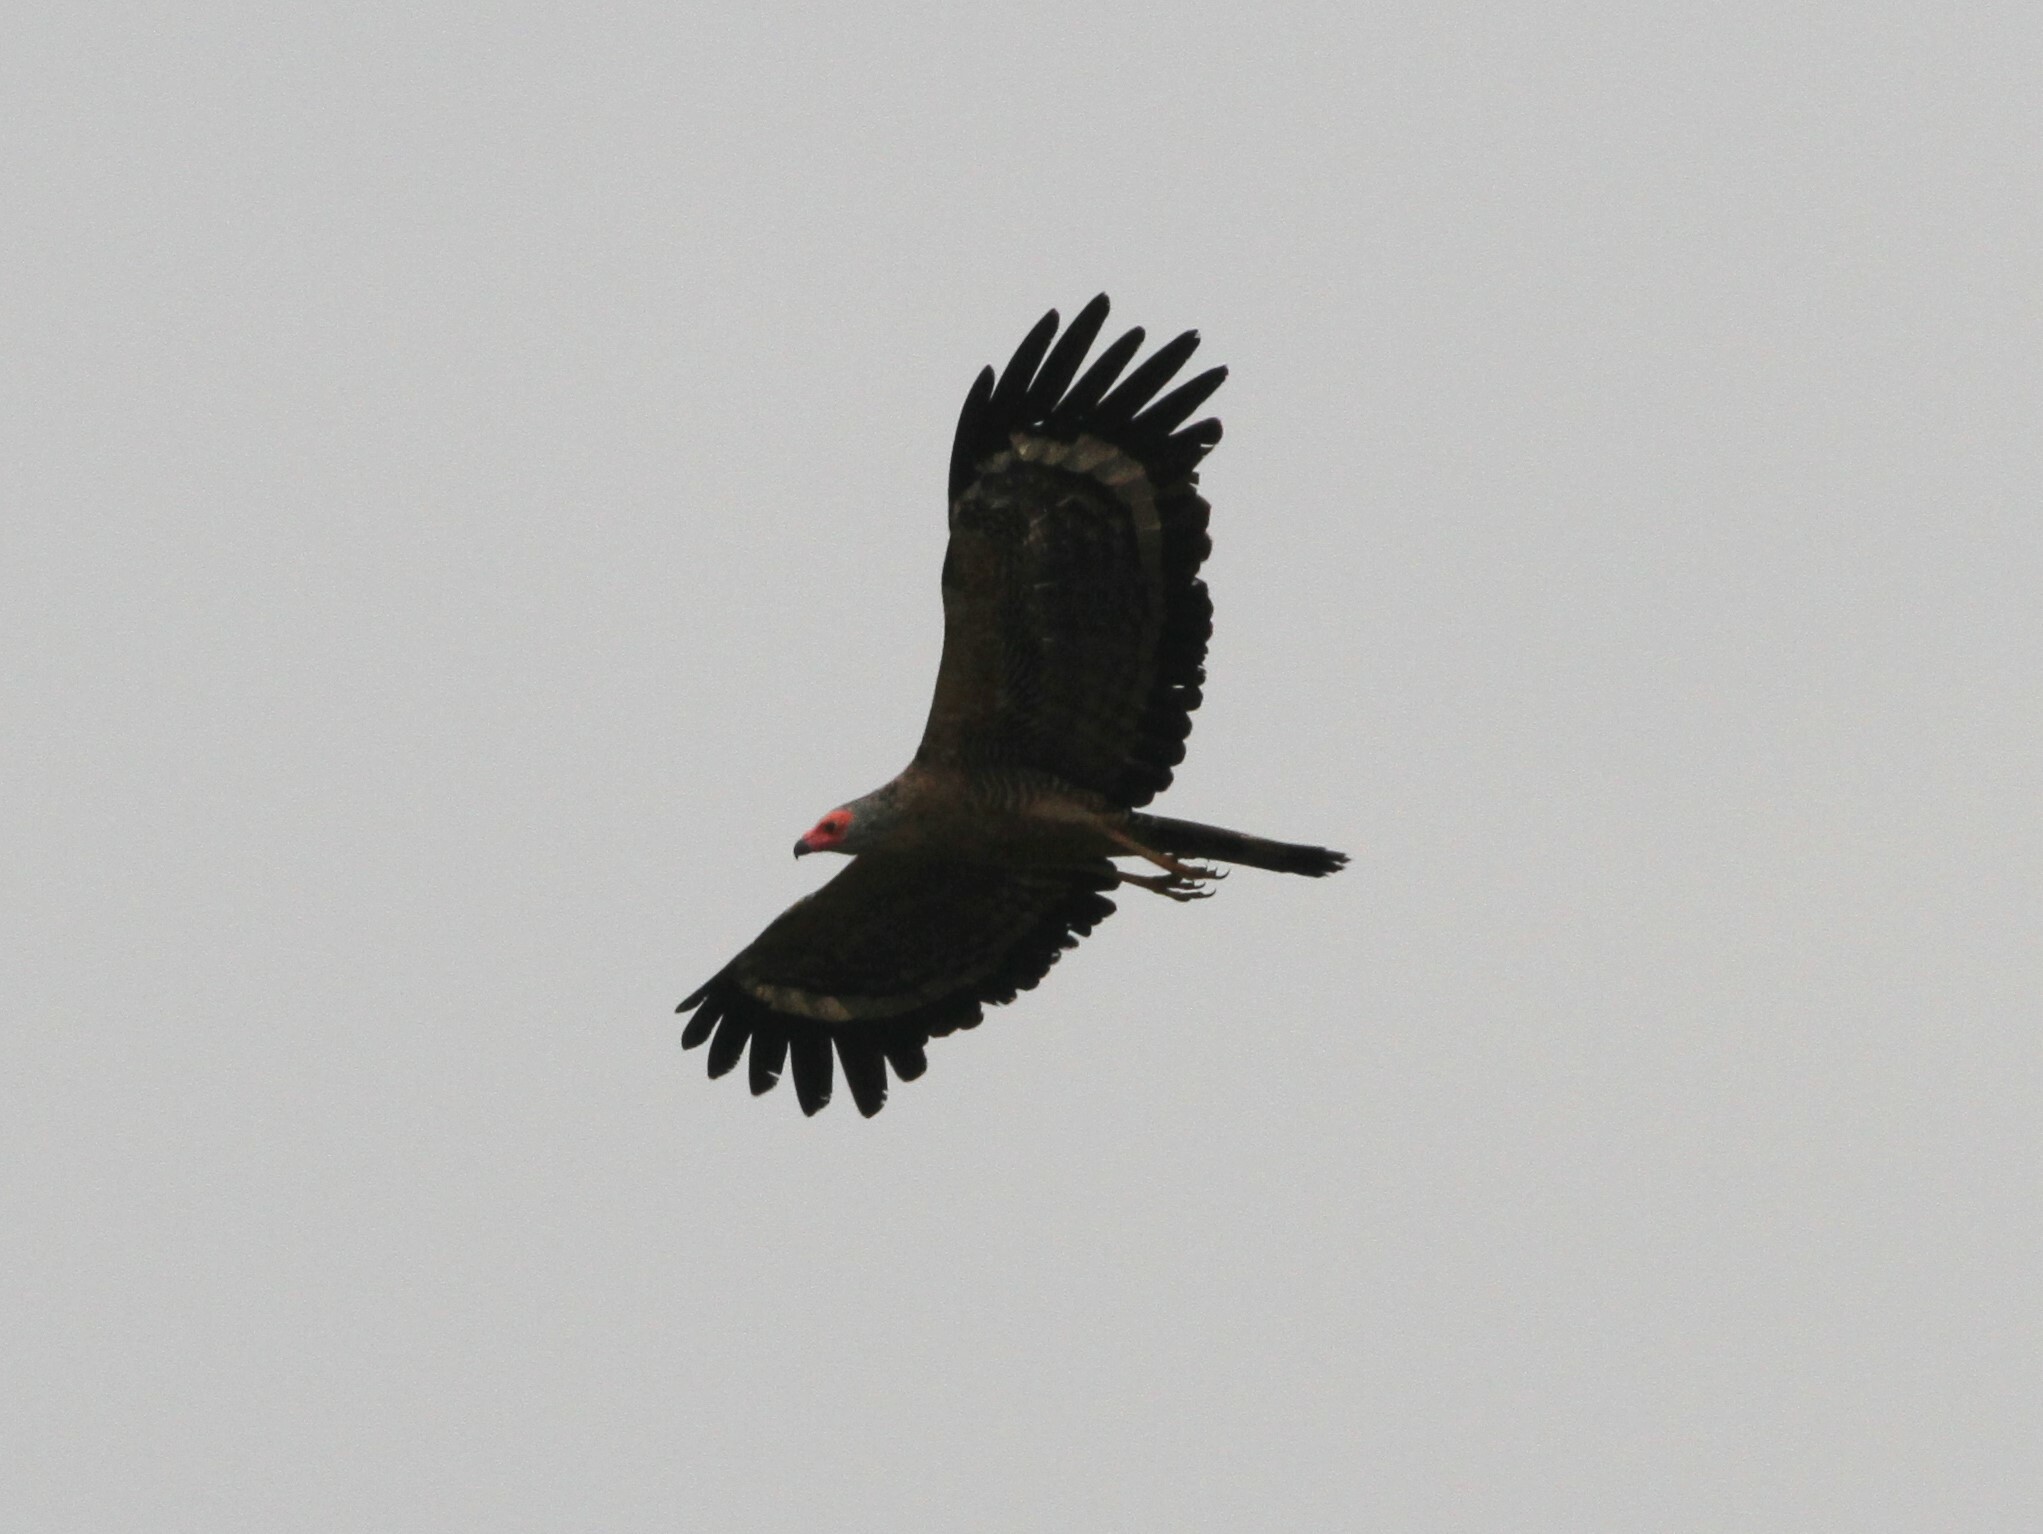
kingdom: Animalia
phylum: Chordata
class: Aves
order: Accipitriformes
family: Accipitridae
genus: Polyboroides
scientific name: Polyboroides typus
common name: African harrier-hawk
